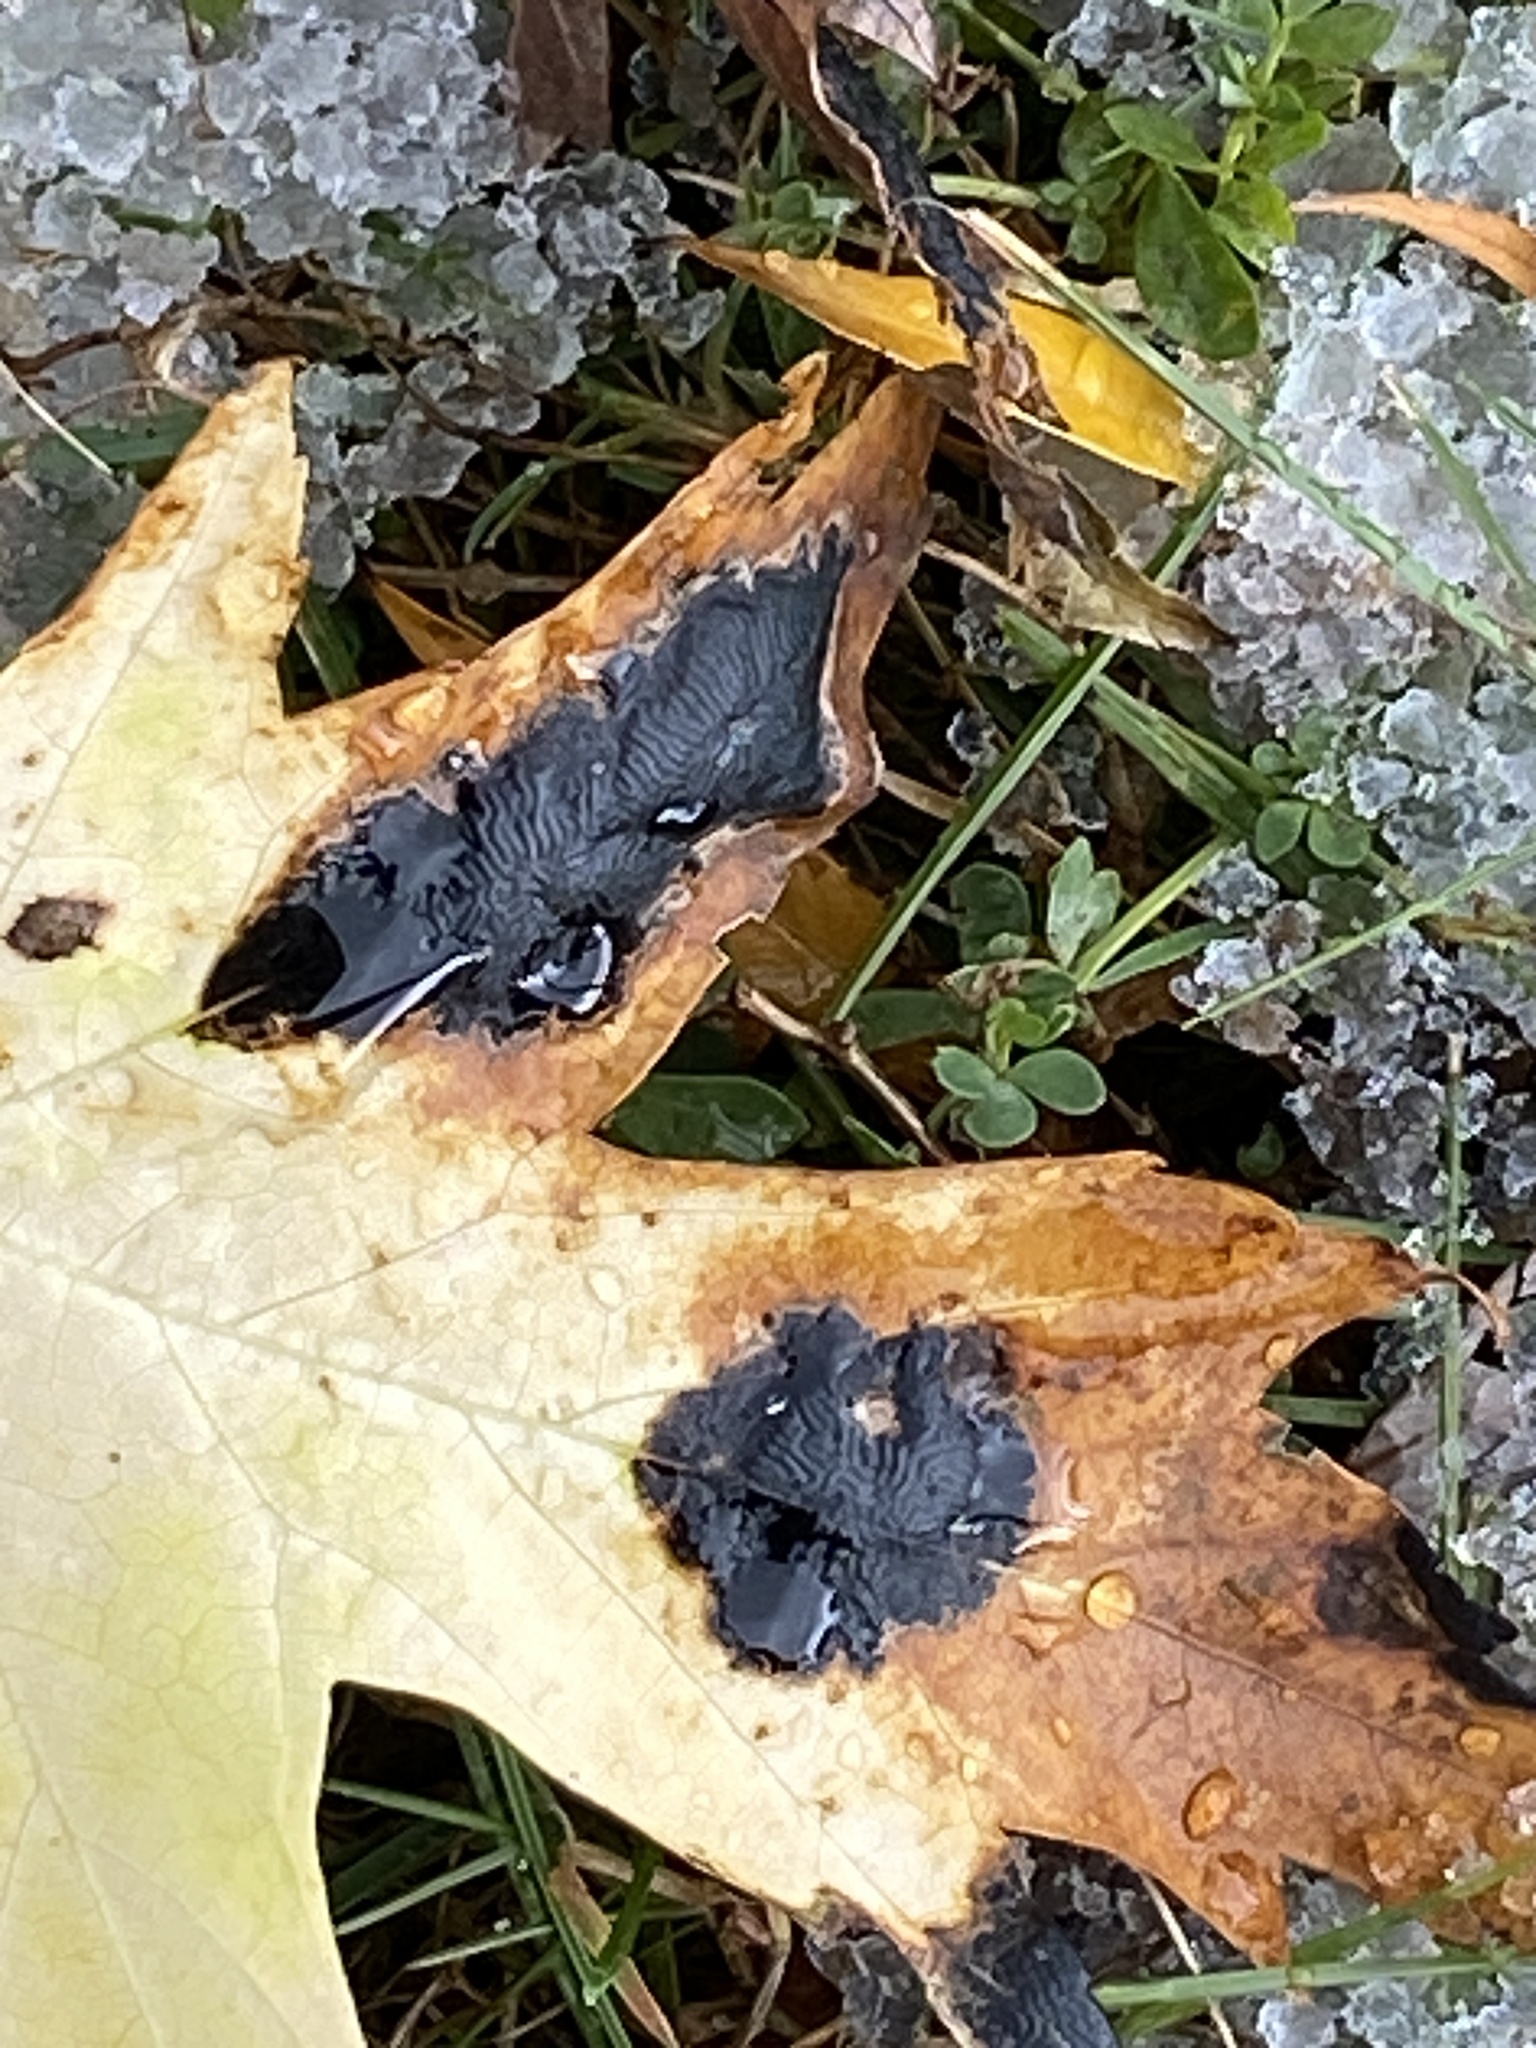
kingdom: Fungi
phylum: Ascomycota
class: Leotiomycetes
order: Rhytismatales
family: Rhytismataceae
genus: Rhytisma
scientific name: Rhytisma americanum
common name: American tar spot
